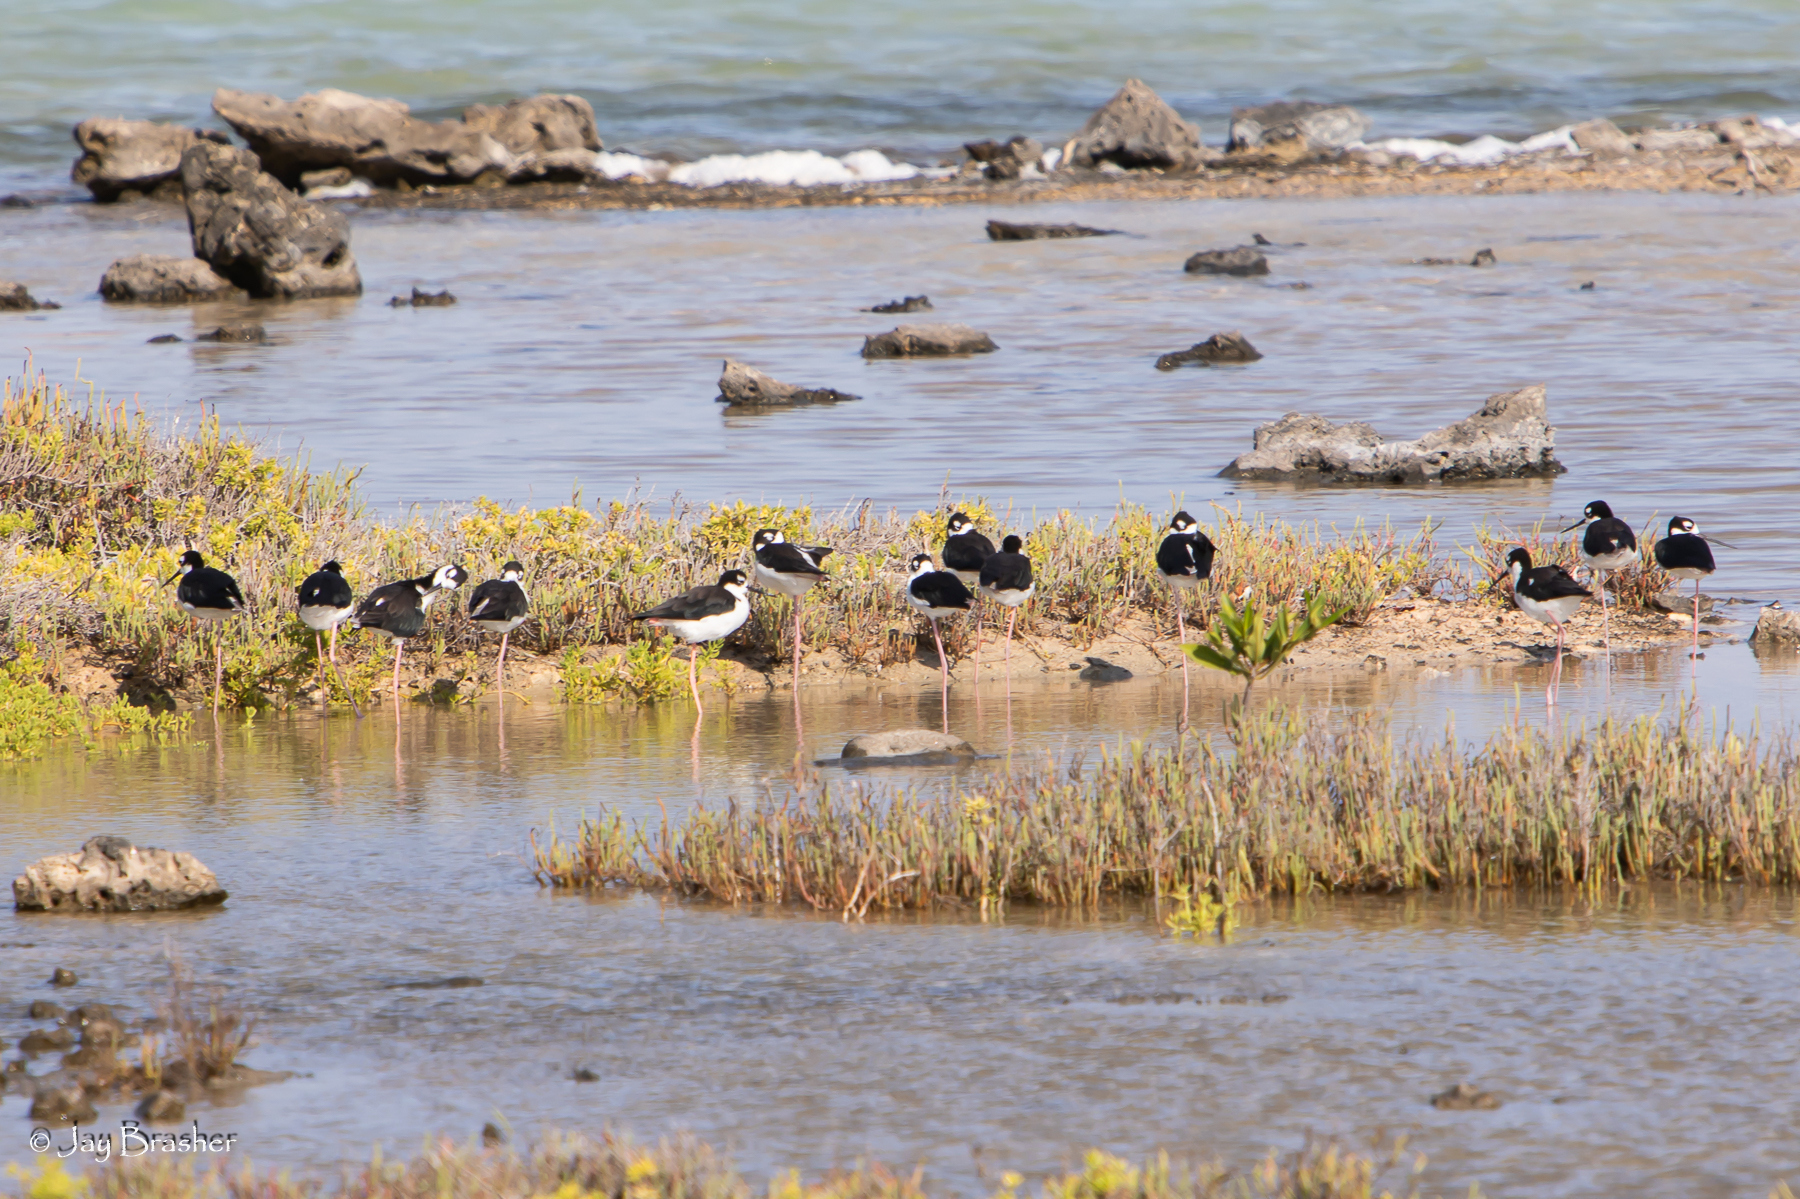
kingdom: Animalia
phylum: Chordata
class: Aves
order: Charadriiformes
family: Recurvirostridae
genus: Himantopus
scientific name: Himantopus mexicanus
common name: Black-necked stilt
